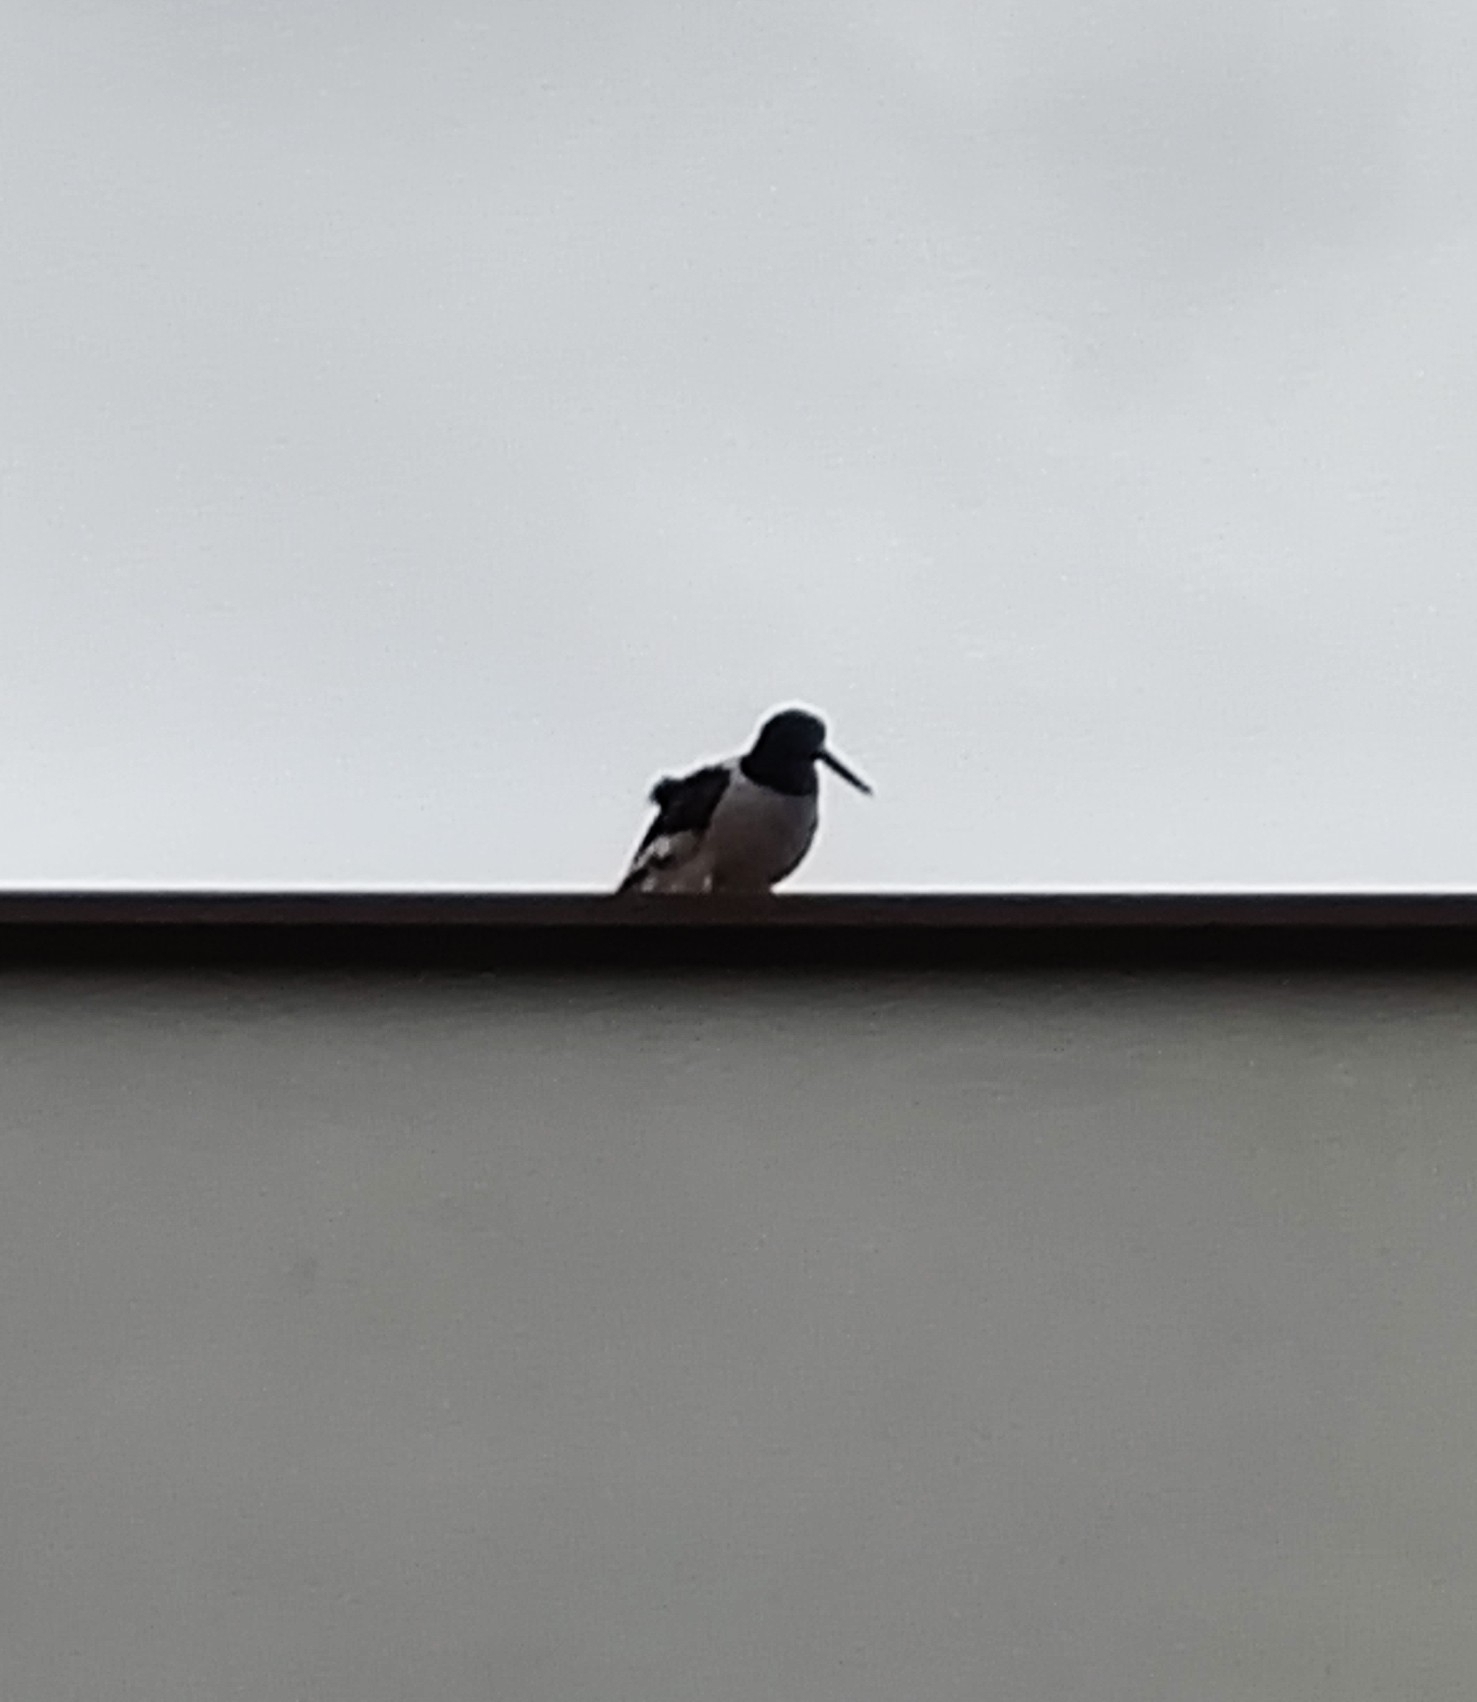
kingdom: Animalia
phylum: Chordata
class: Aves
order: Charadriiformes
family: Haematopodidae
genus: Haematopus
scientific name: Haematopus ostralegus
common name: Eurasian oystercatcher
